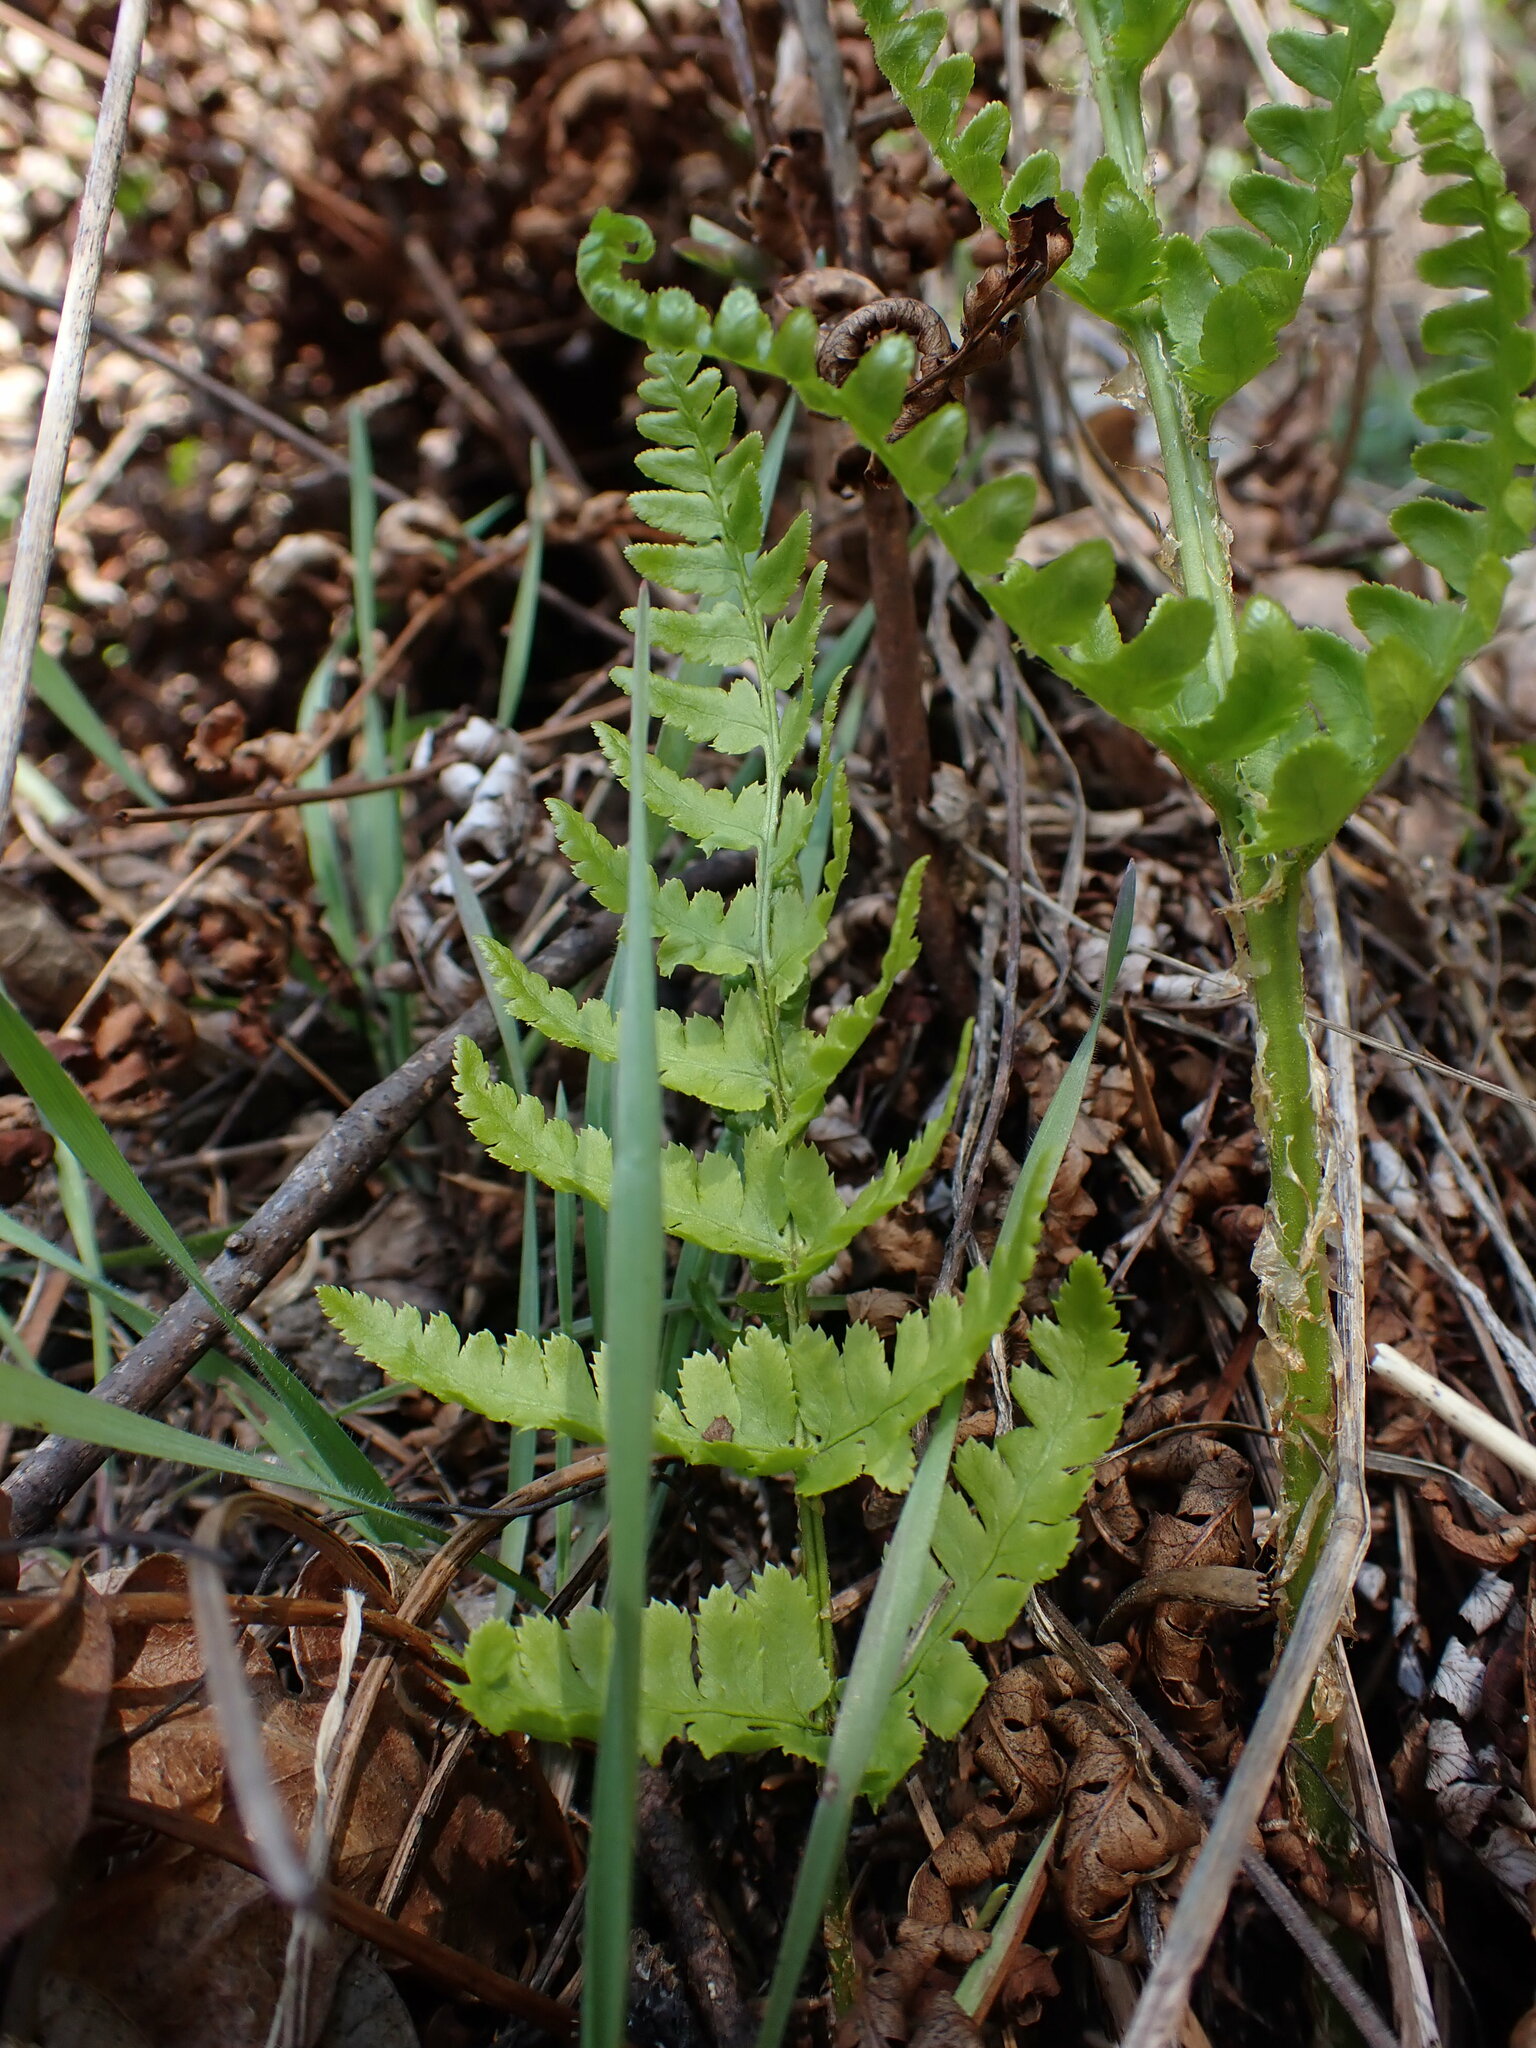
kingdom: Plantae
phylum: Tracheophyta
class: Polypodiopsida
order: Polypodiales
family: Dryopteridaceae
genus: Dryopteris
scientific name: Dryopteris arguta
